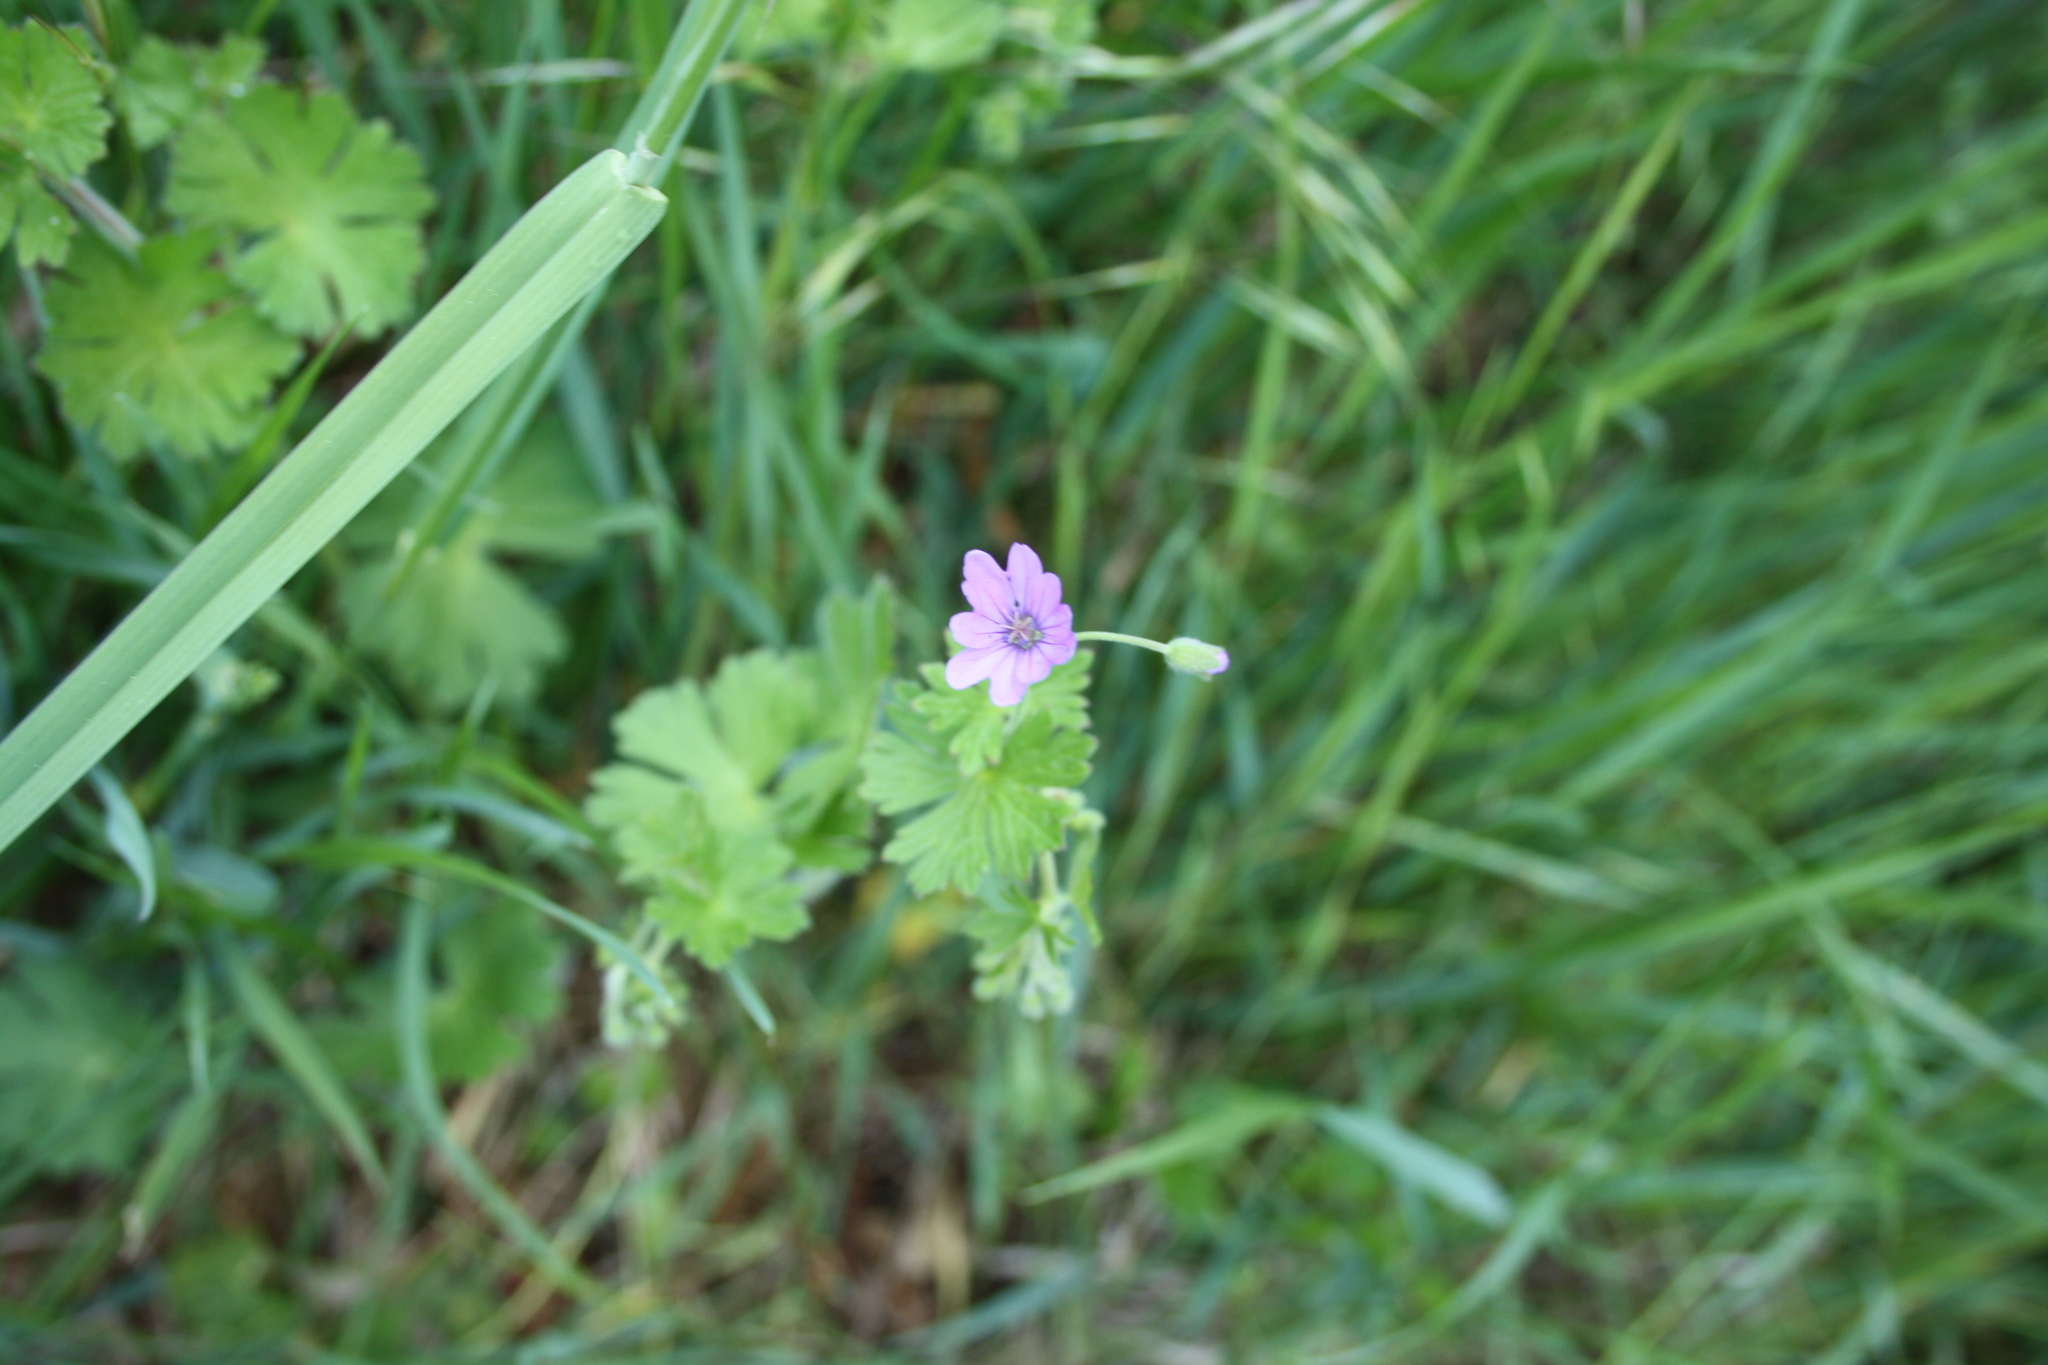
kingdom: Plantae
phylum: Tracheophyta
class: Magnoliopsida
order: Geraniales
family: Geraniaceae
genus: Geranium
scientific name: Geranium pyrenaicum
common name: Hedgerow crane's-bill
